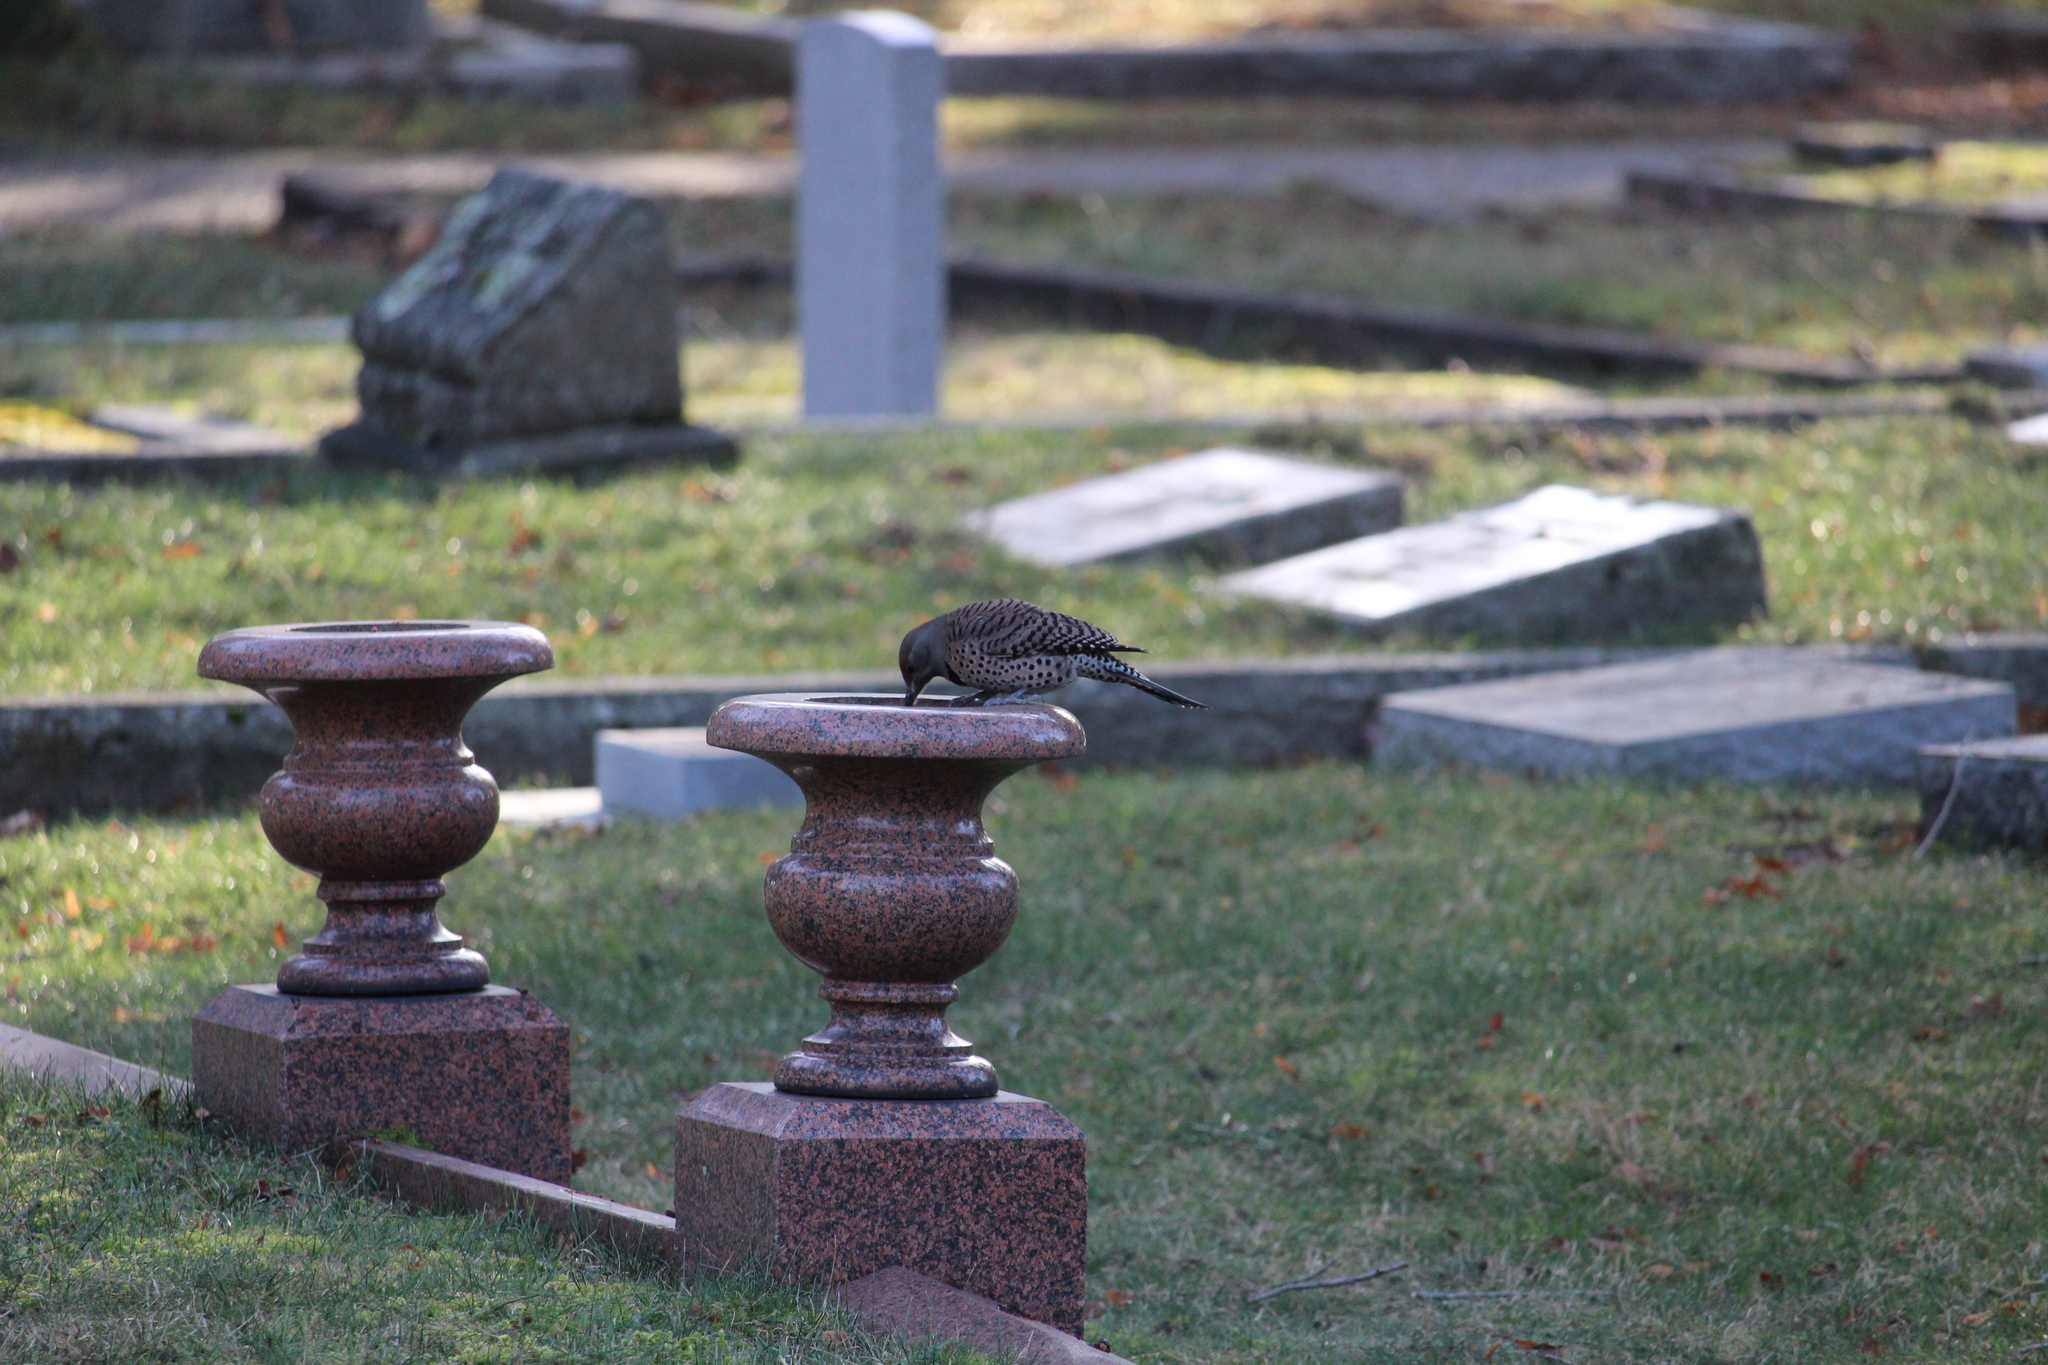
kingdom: Animalia
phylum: Chordata
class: Aves
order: Piciformes
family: Picidae
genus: Colaptes
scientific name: Colaptes auratus
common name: Northern flicker
